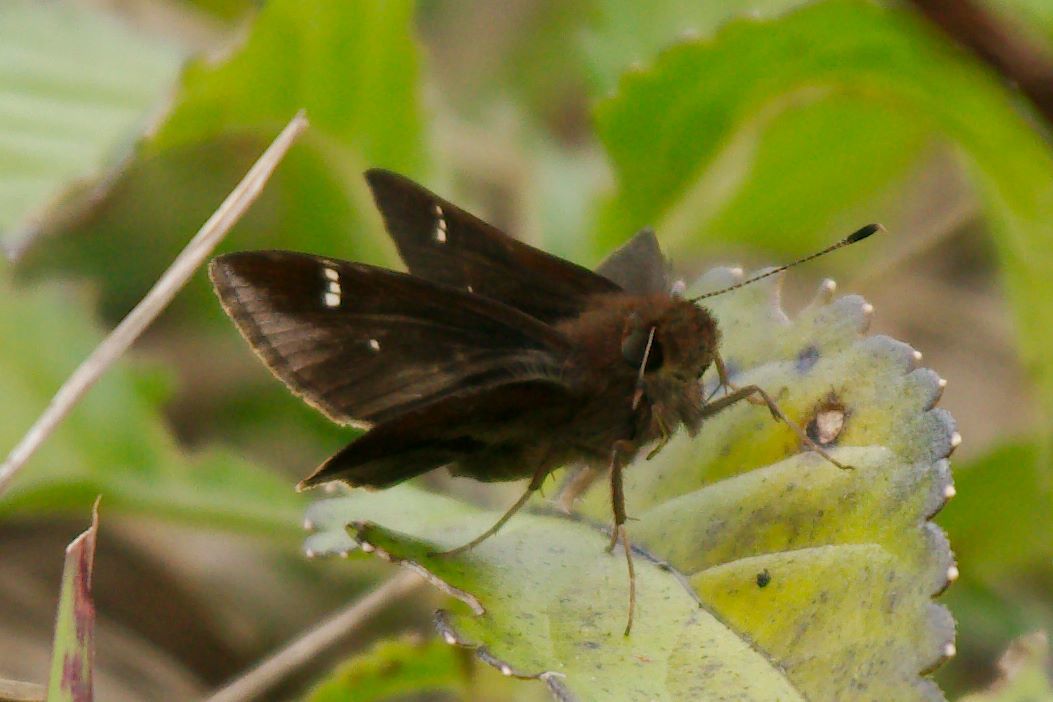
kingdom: Animalia
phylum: Arthropoda
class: Insecta
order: Lepidoptera
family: Hesperiidae
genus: Lerema
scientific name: Lerema accius
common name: Clouded skipper
